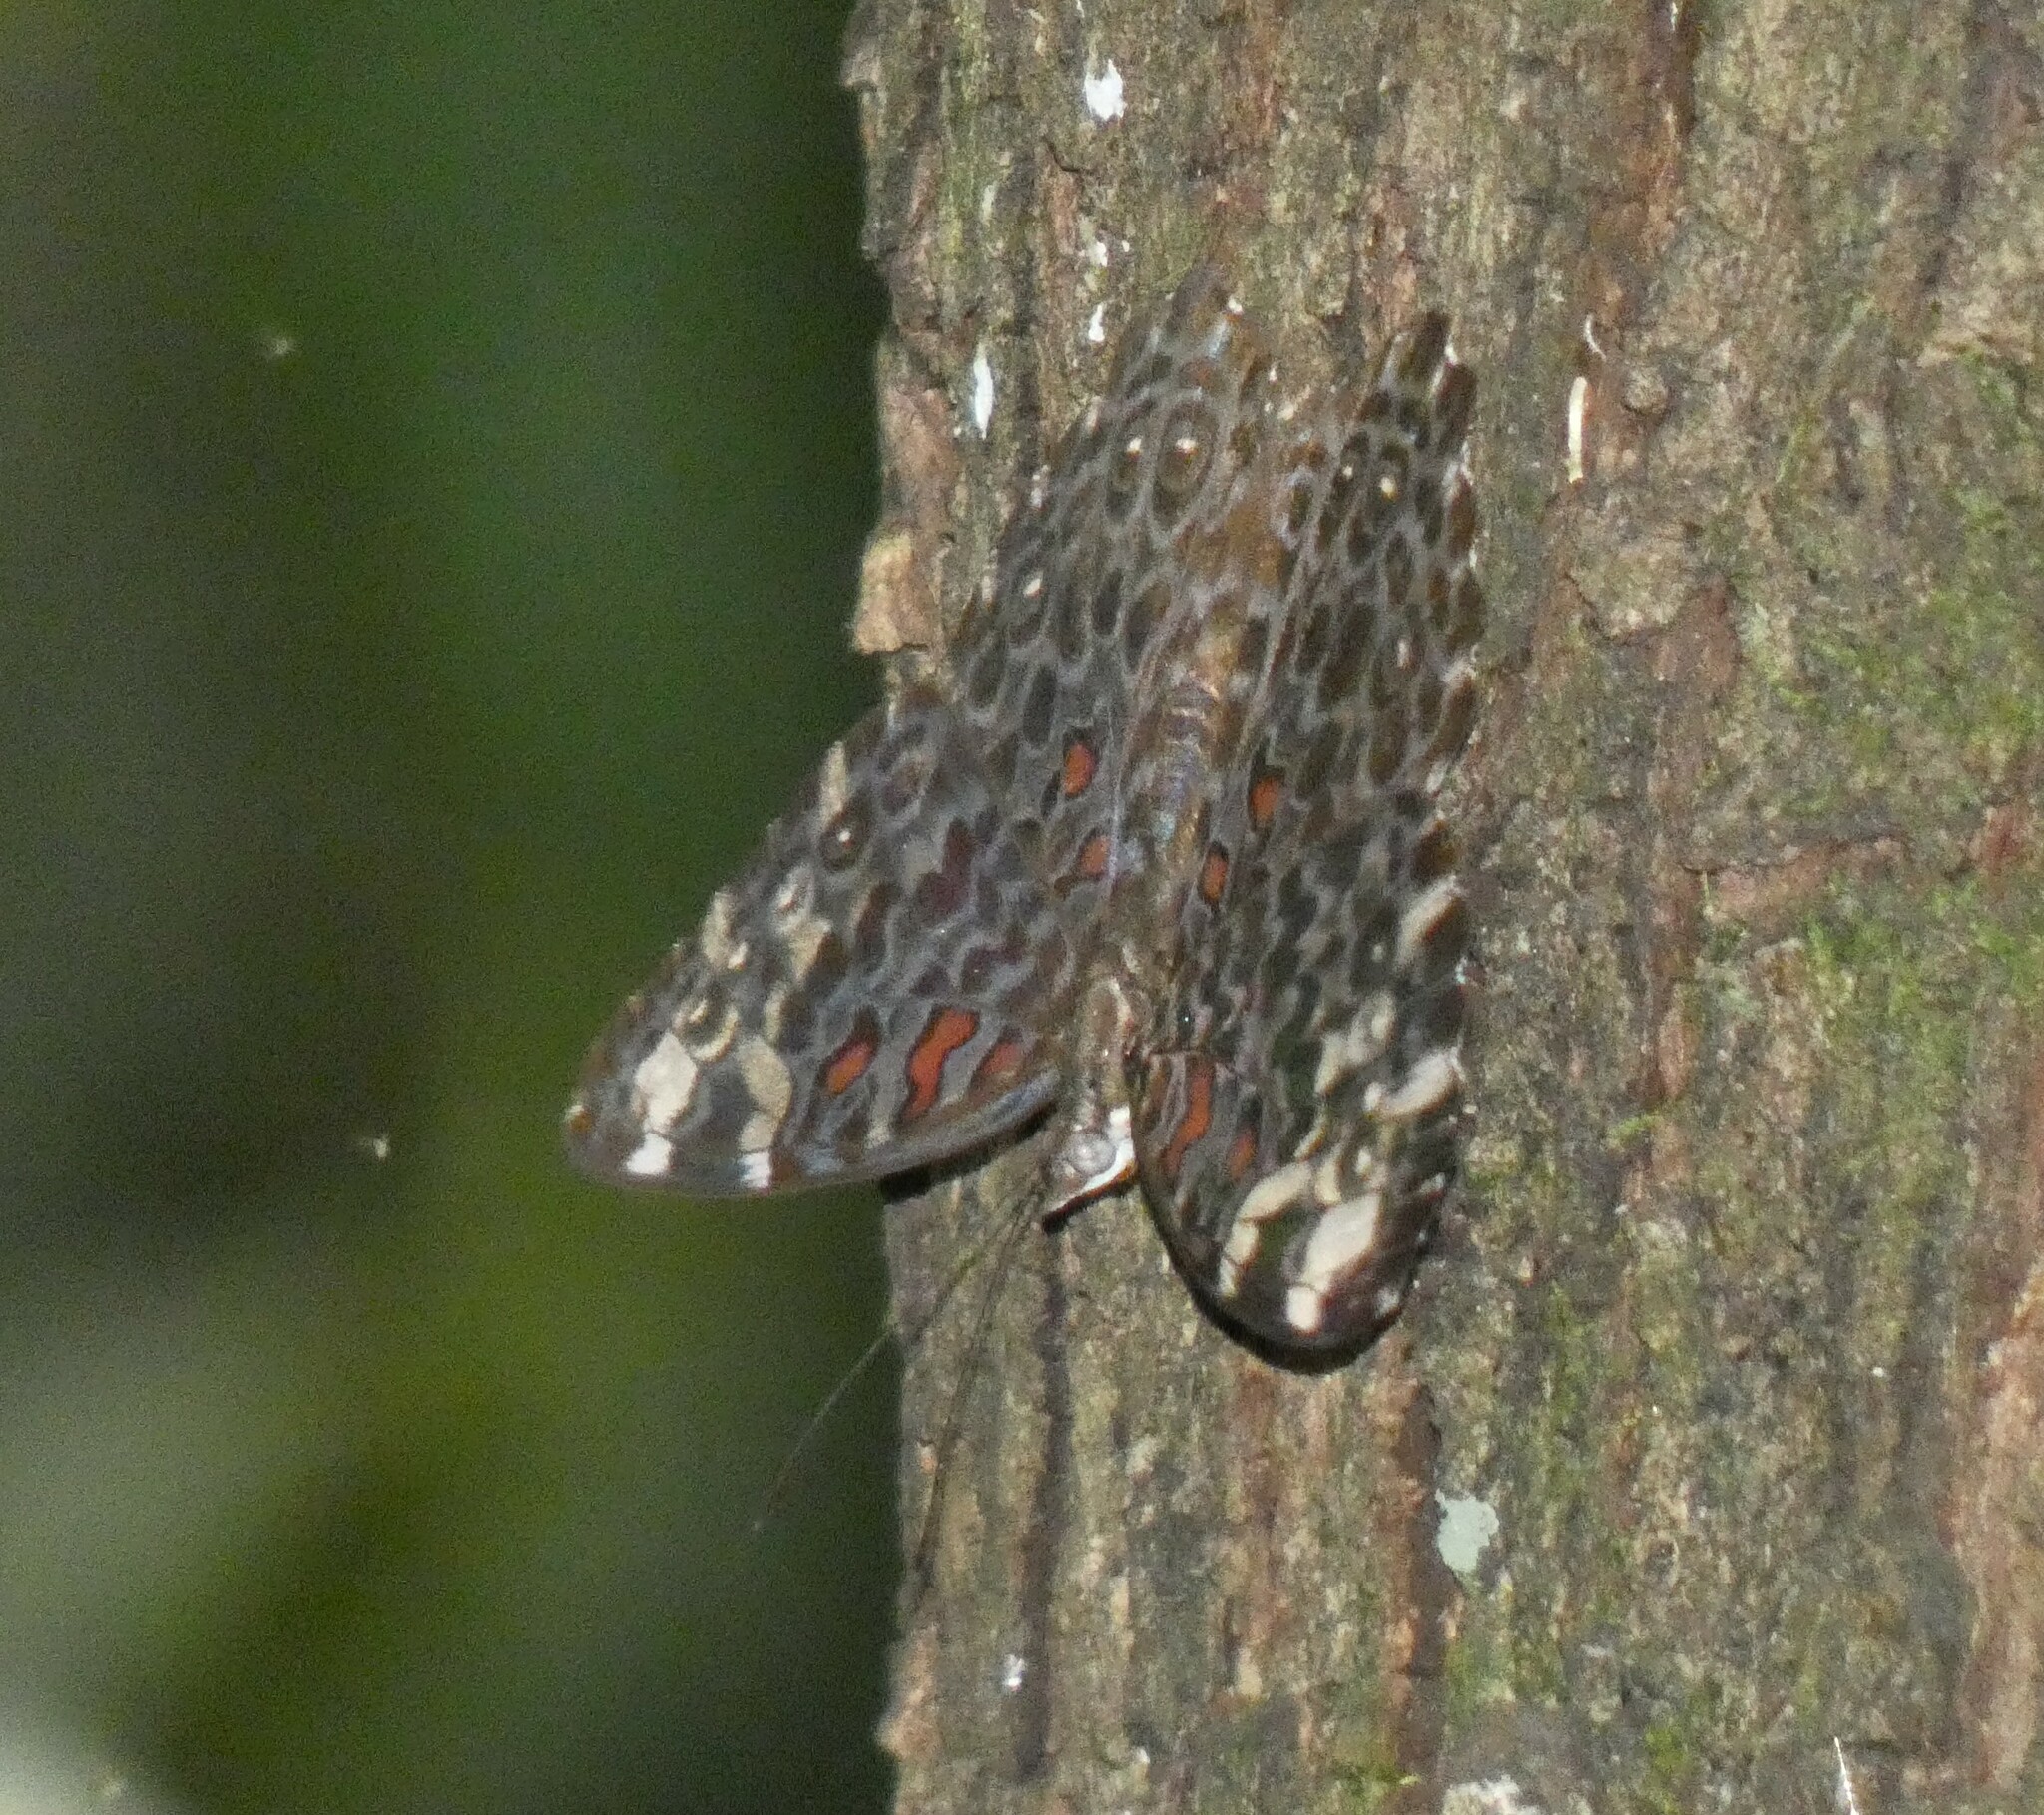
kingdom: Animalia
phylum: Arthropoda
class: Insecta
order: Lepidoptera
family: Nymphalidae
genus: Hamadryas
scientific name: Hamadryas chloe
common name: Amazon cracker
